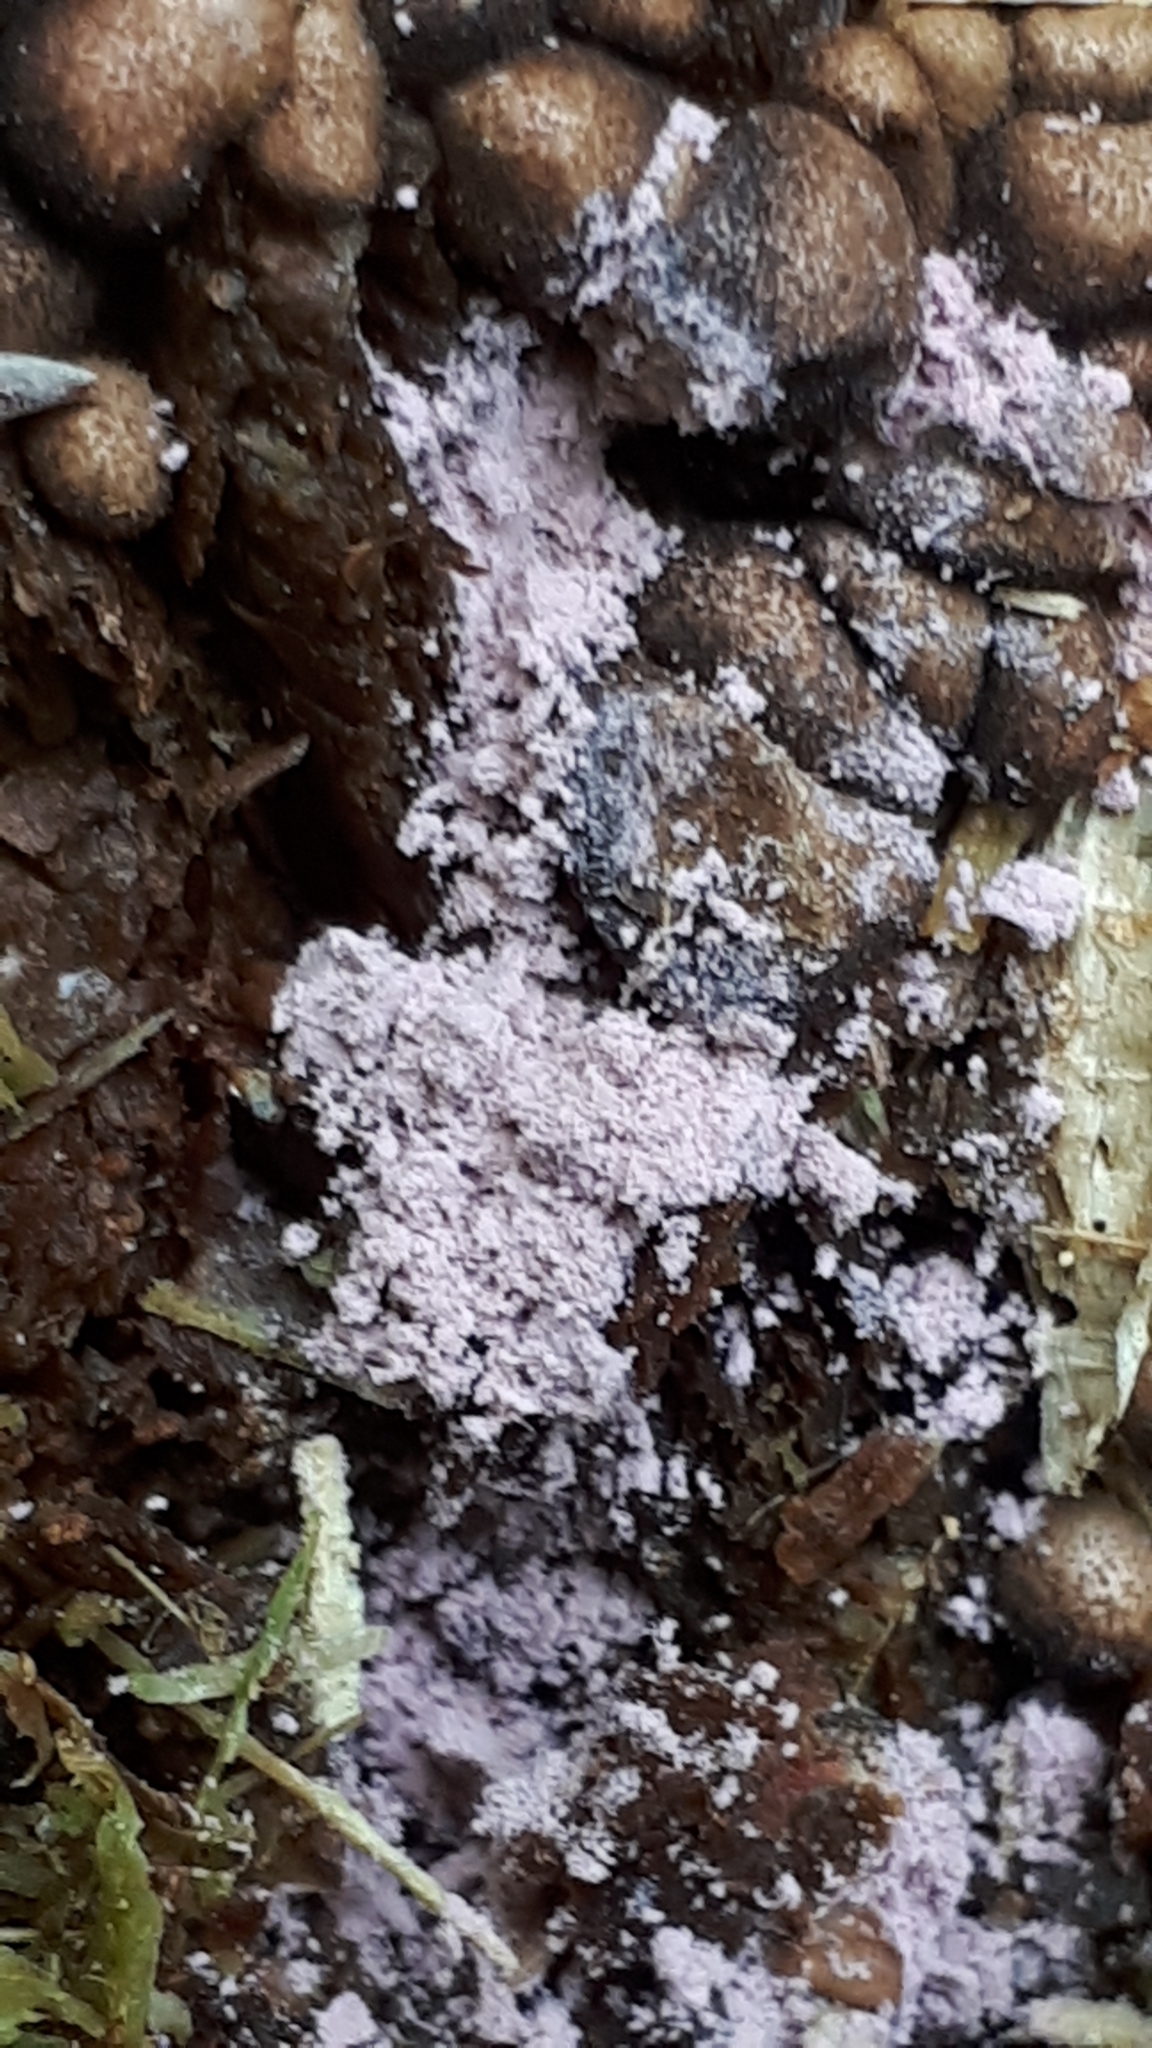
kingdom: Protozoa
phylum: Mycetozoa
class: Myxomycetes
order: Cribrariales
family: Tubiferaceae
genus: Lycogala
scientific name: Lycogala epidendrum
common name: Wolf's milk
